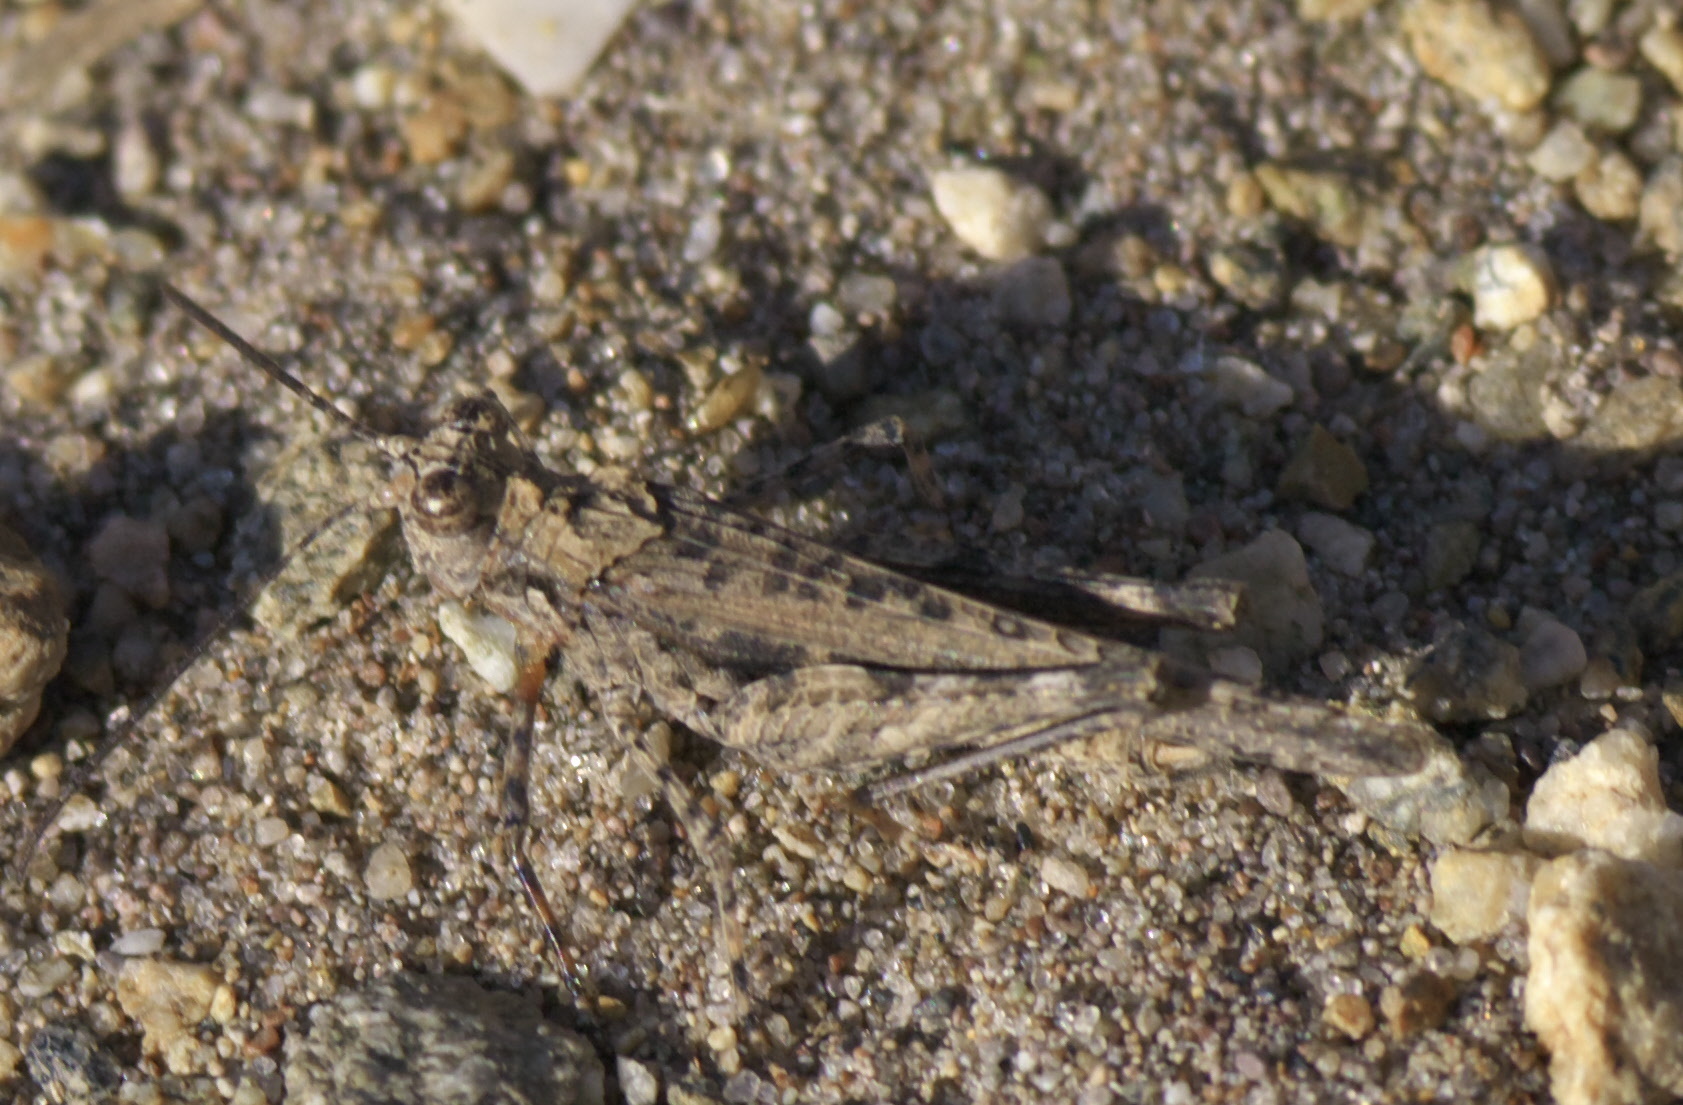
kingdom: Animalia
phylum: Arthropoda
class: Insecta
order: Orthoptera
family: Acrididae
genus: Derotmema
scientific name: Derotmema haydenii
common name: Hayden's grasshopper
